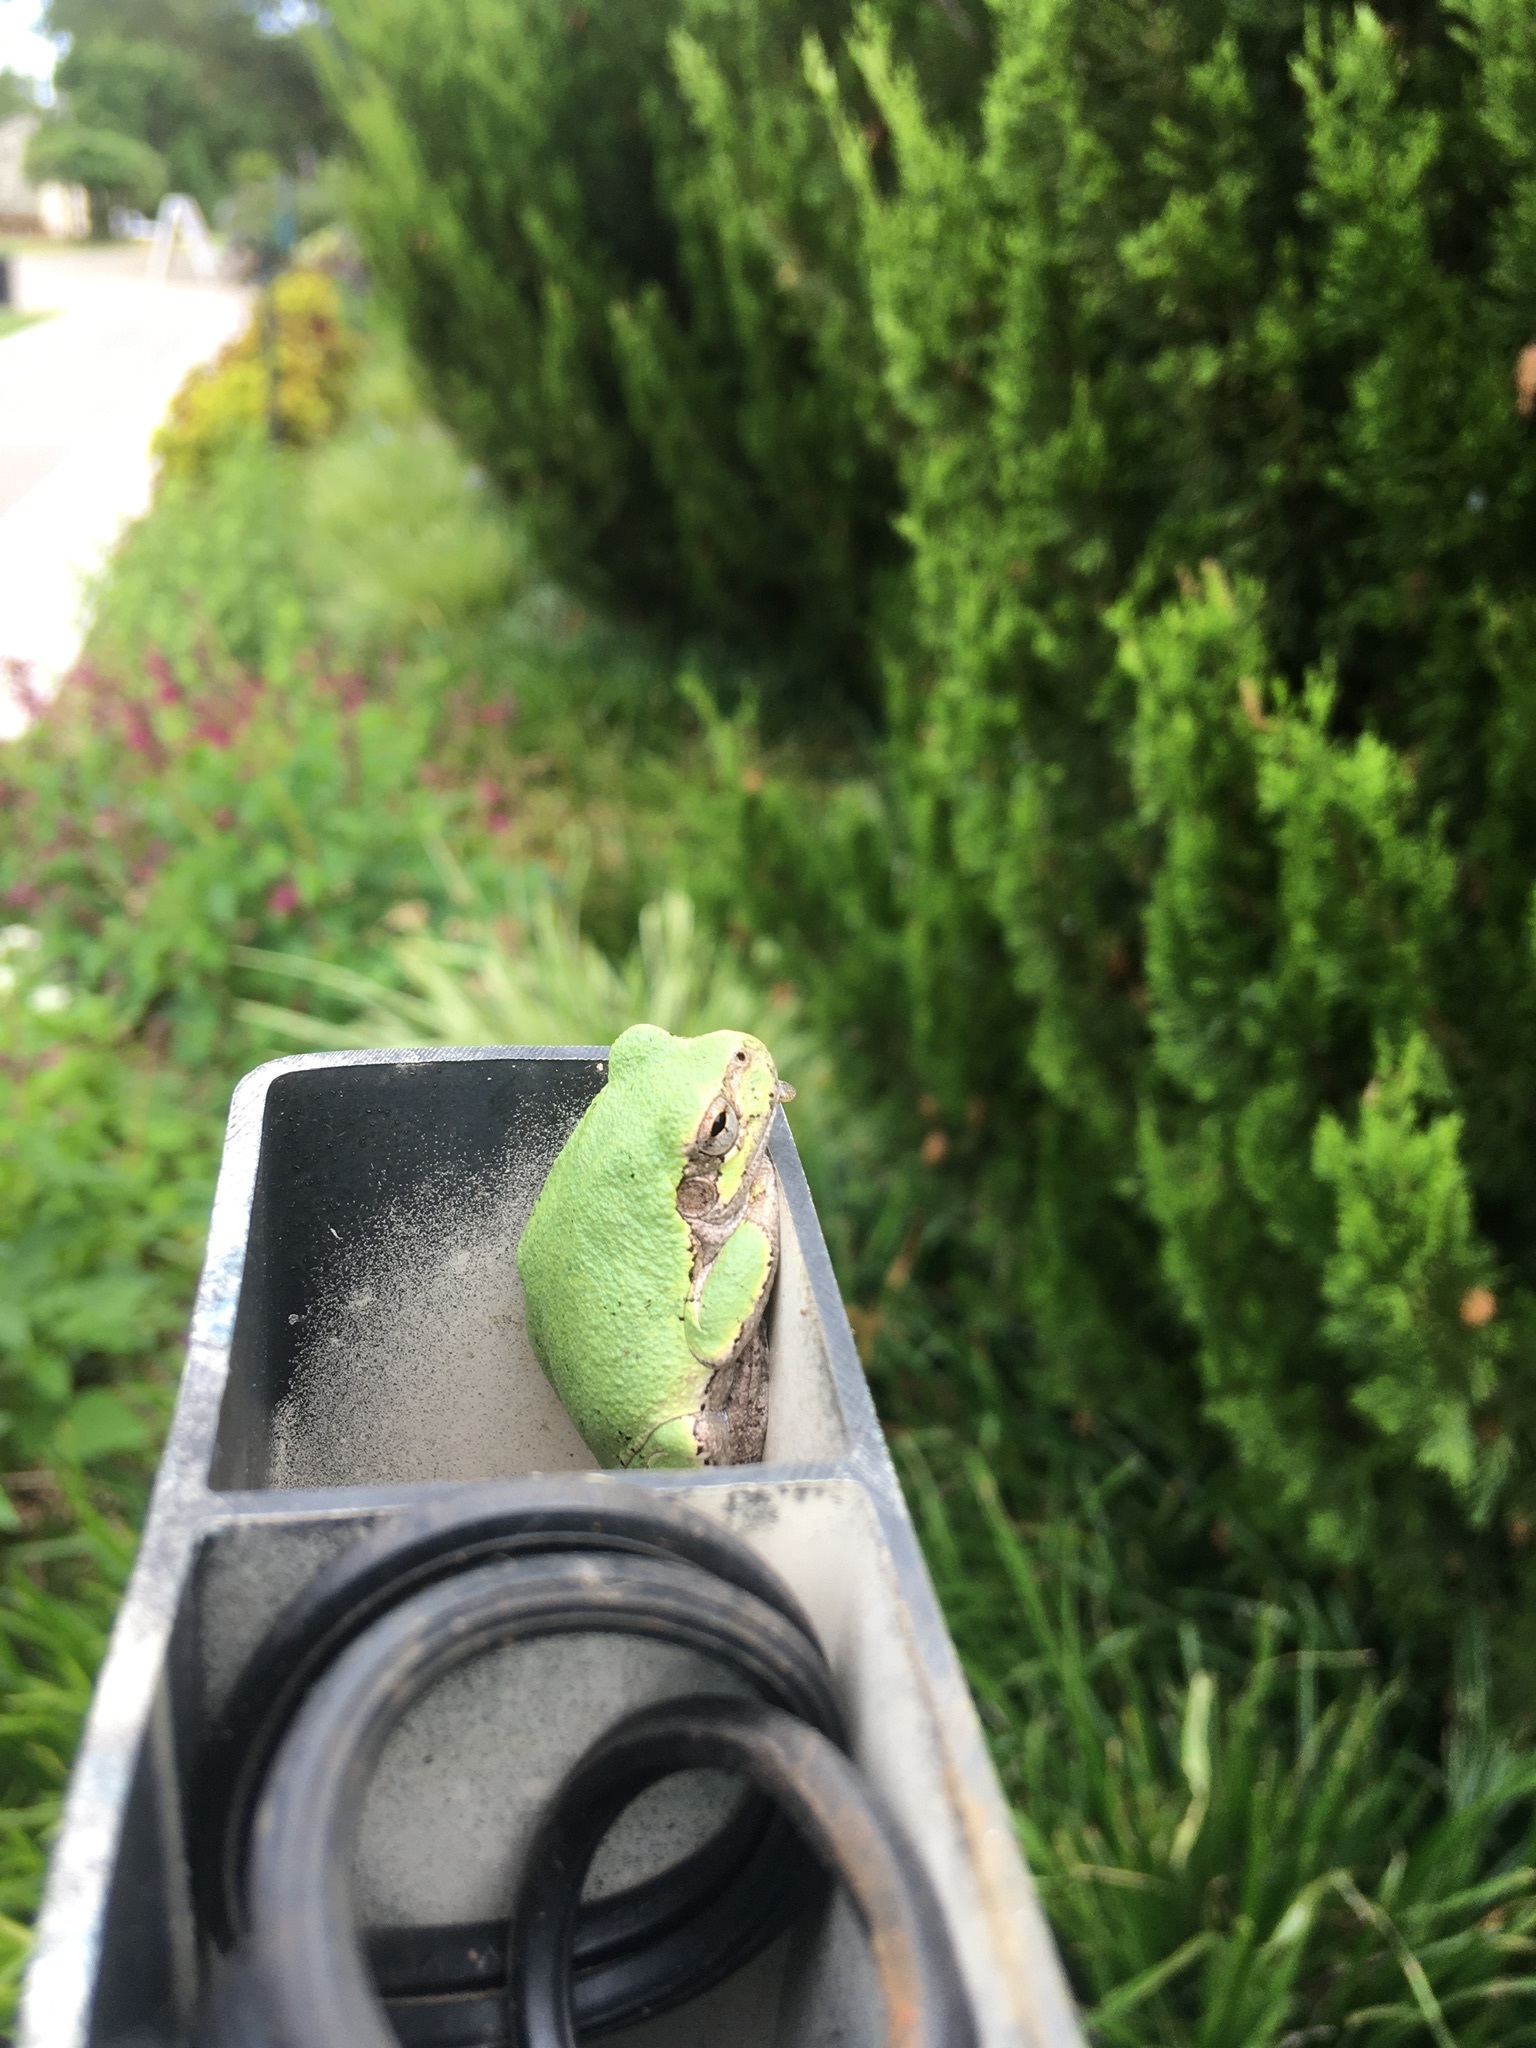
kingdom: Animalia
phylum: Chordata
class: Amphibia
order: Anura
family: Hylidae
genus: Hyla
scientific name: Hyla
